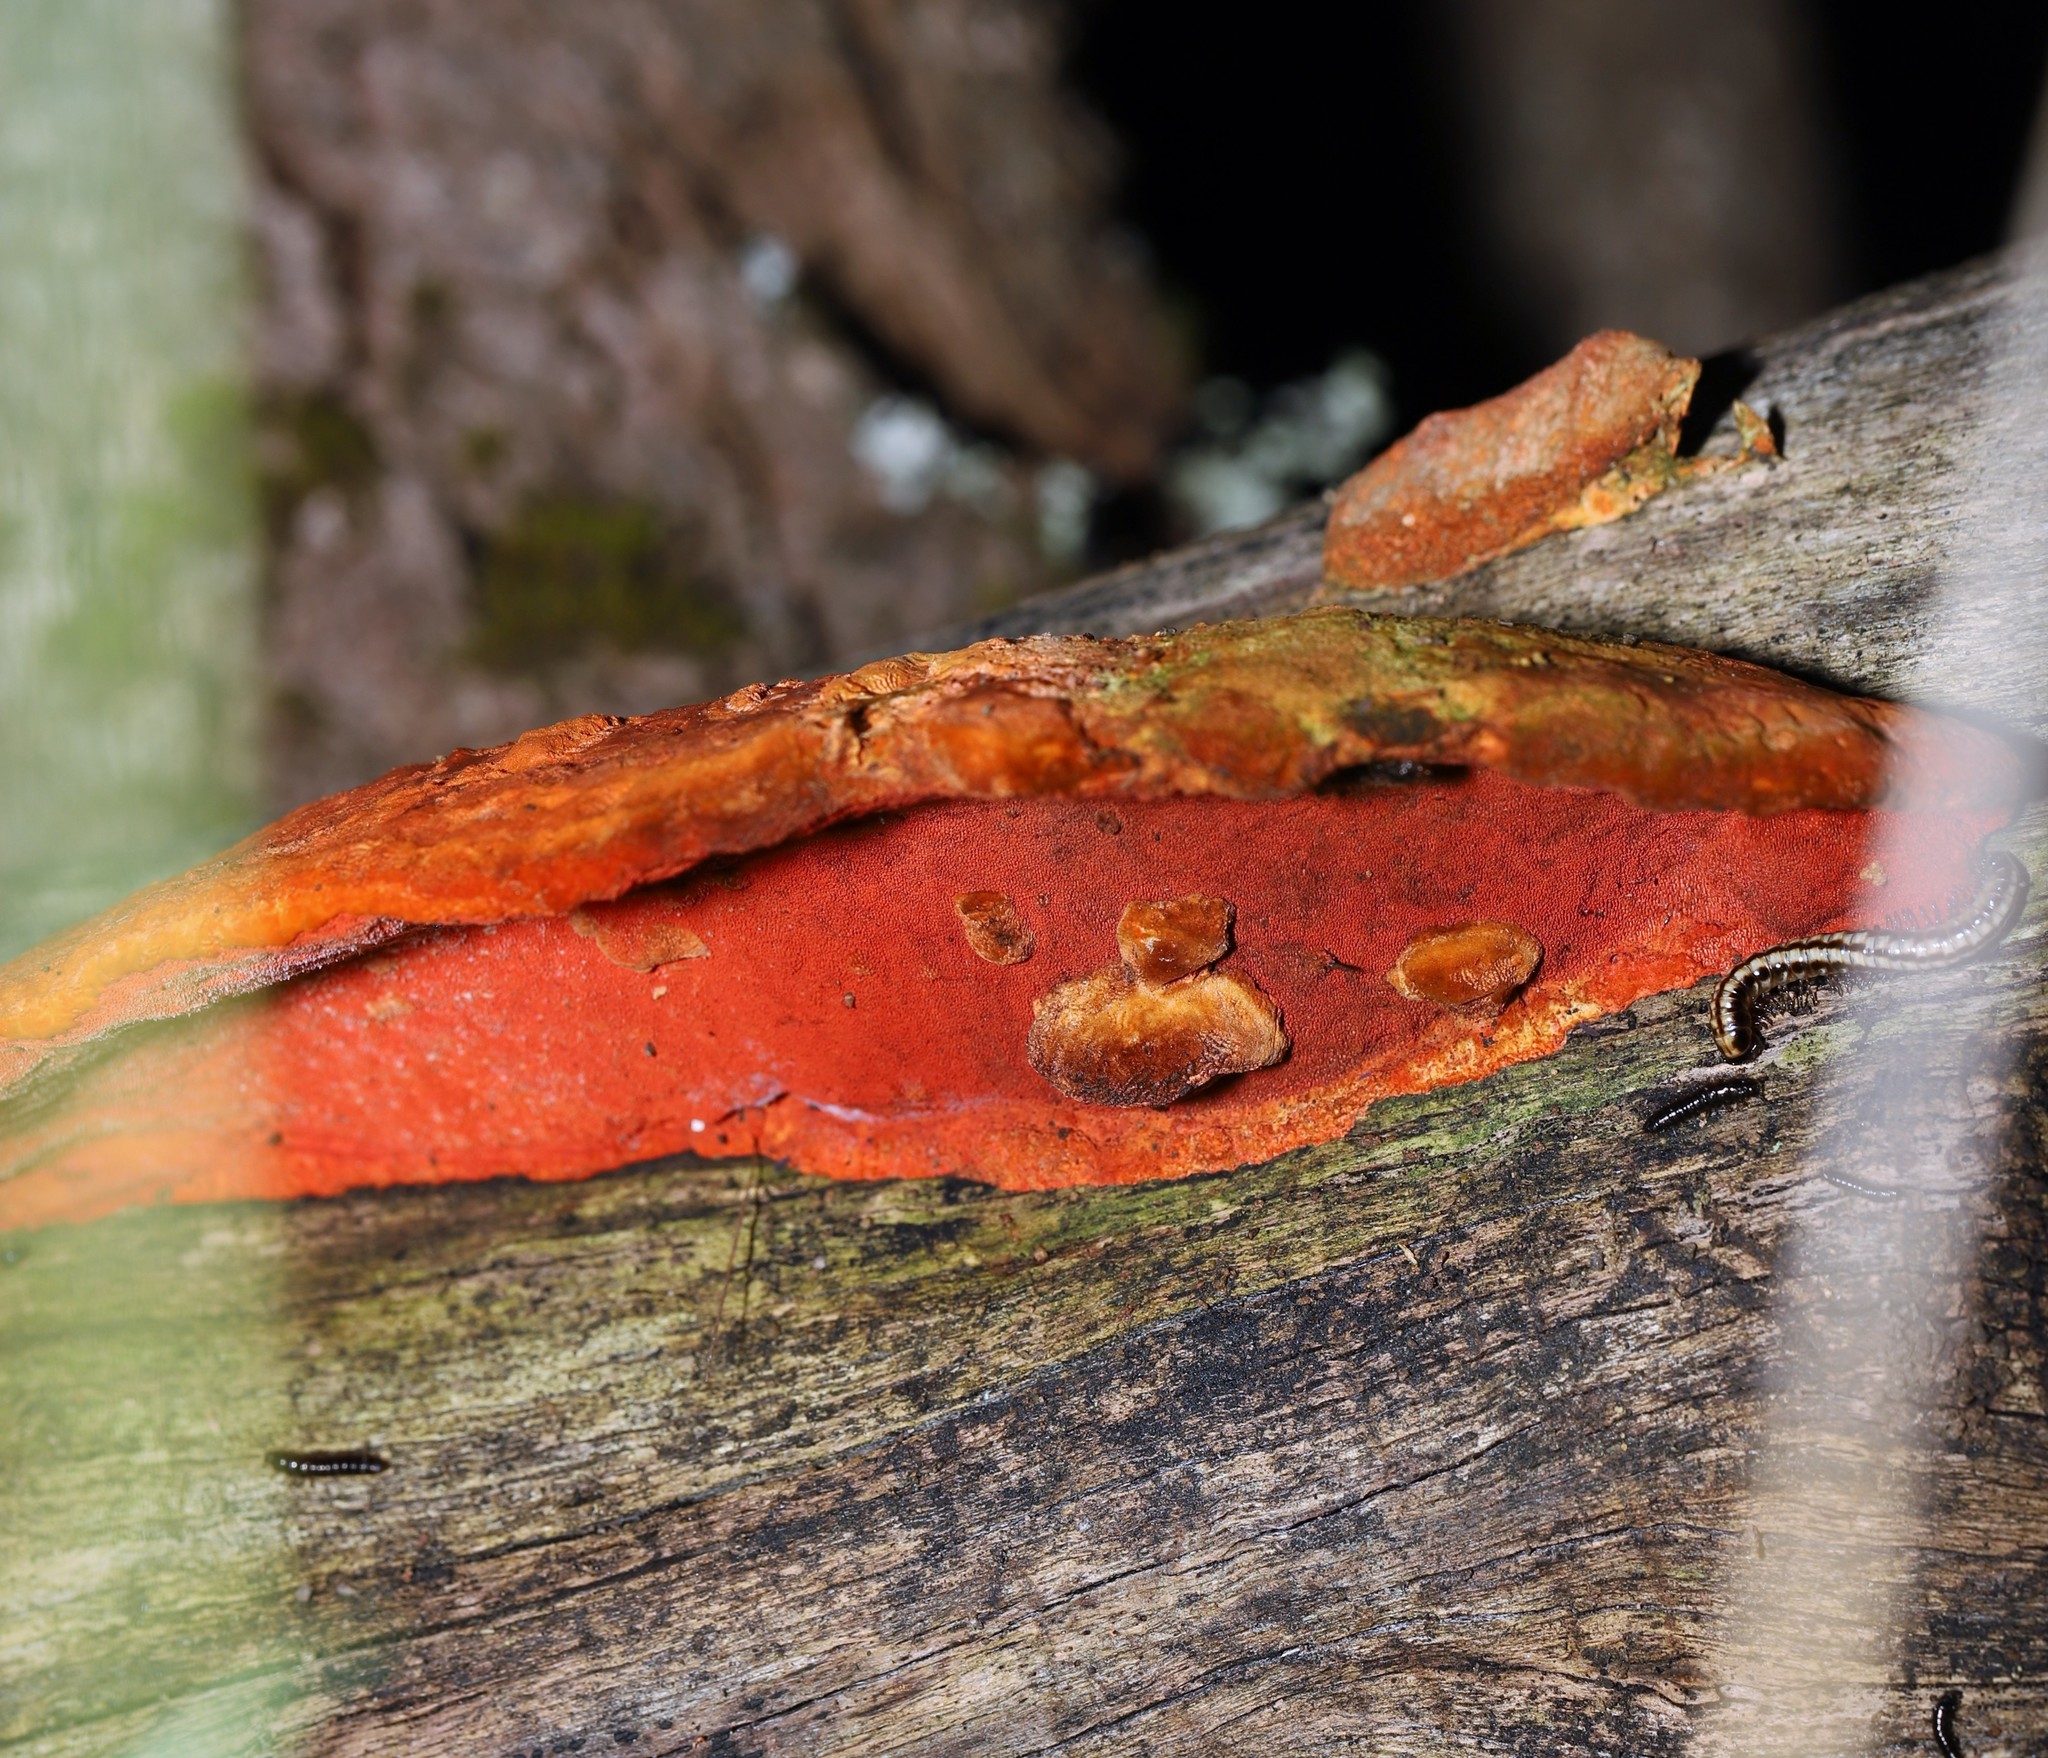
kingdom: Fungi
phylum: Basidiomycota
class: Agaricomycetes
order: Polyporales
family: Polyporaceae
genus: Trametes
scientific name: Trametes coccinea
